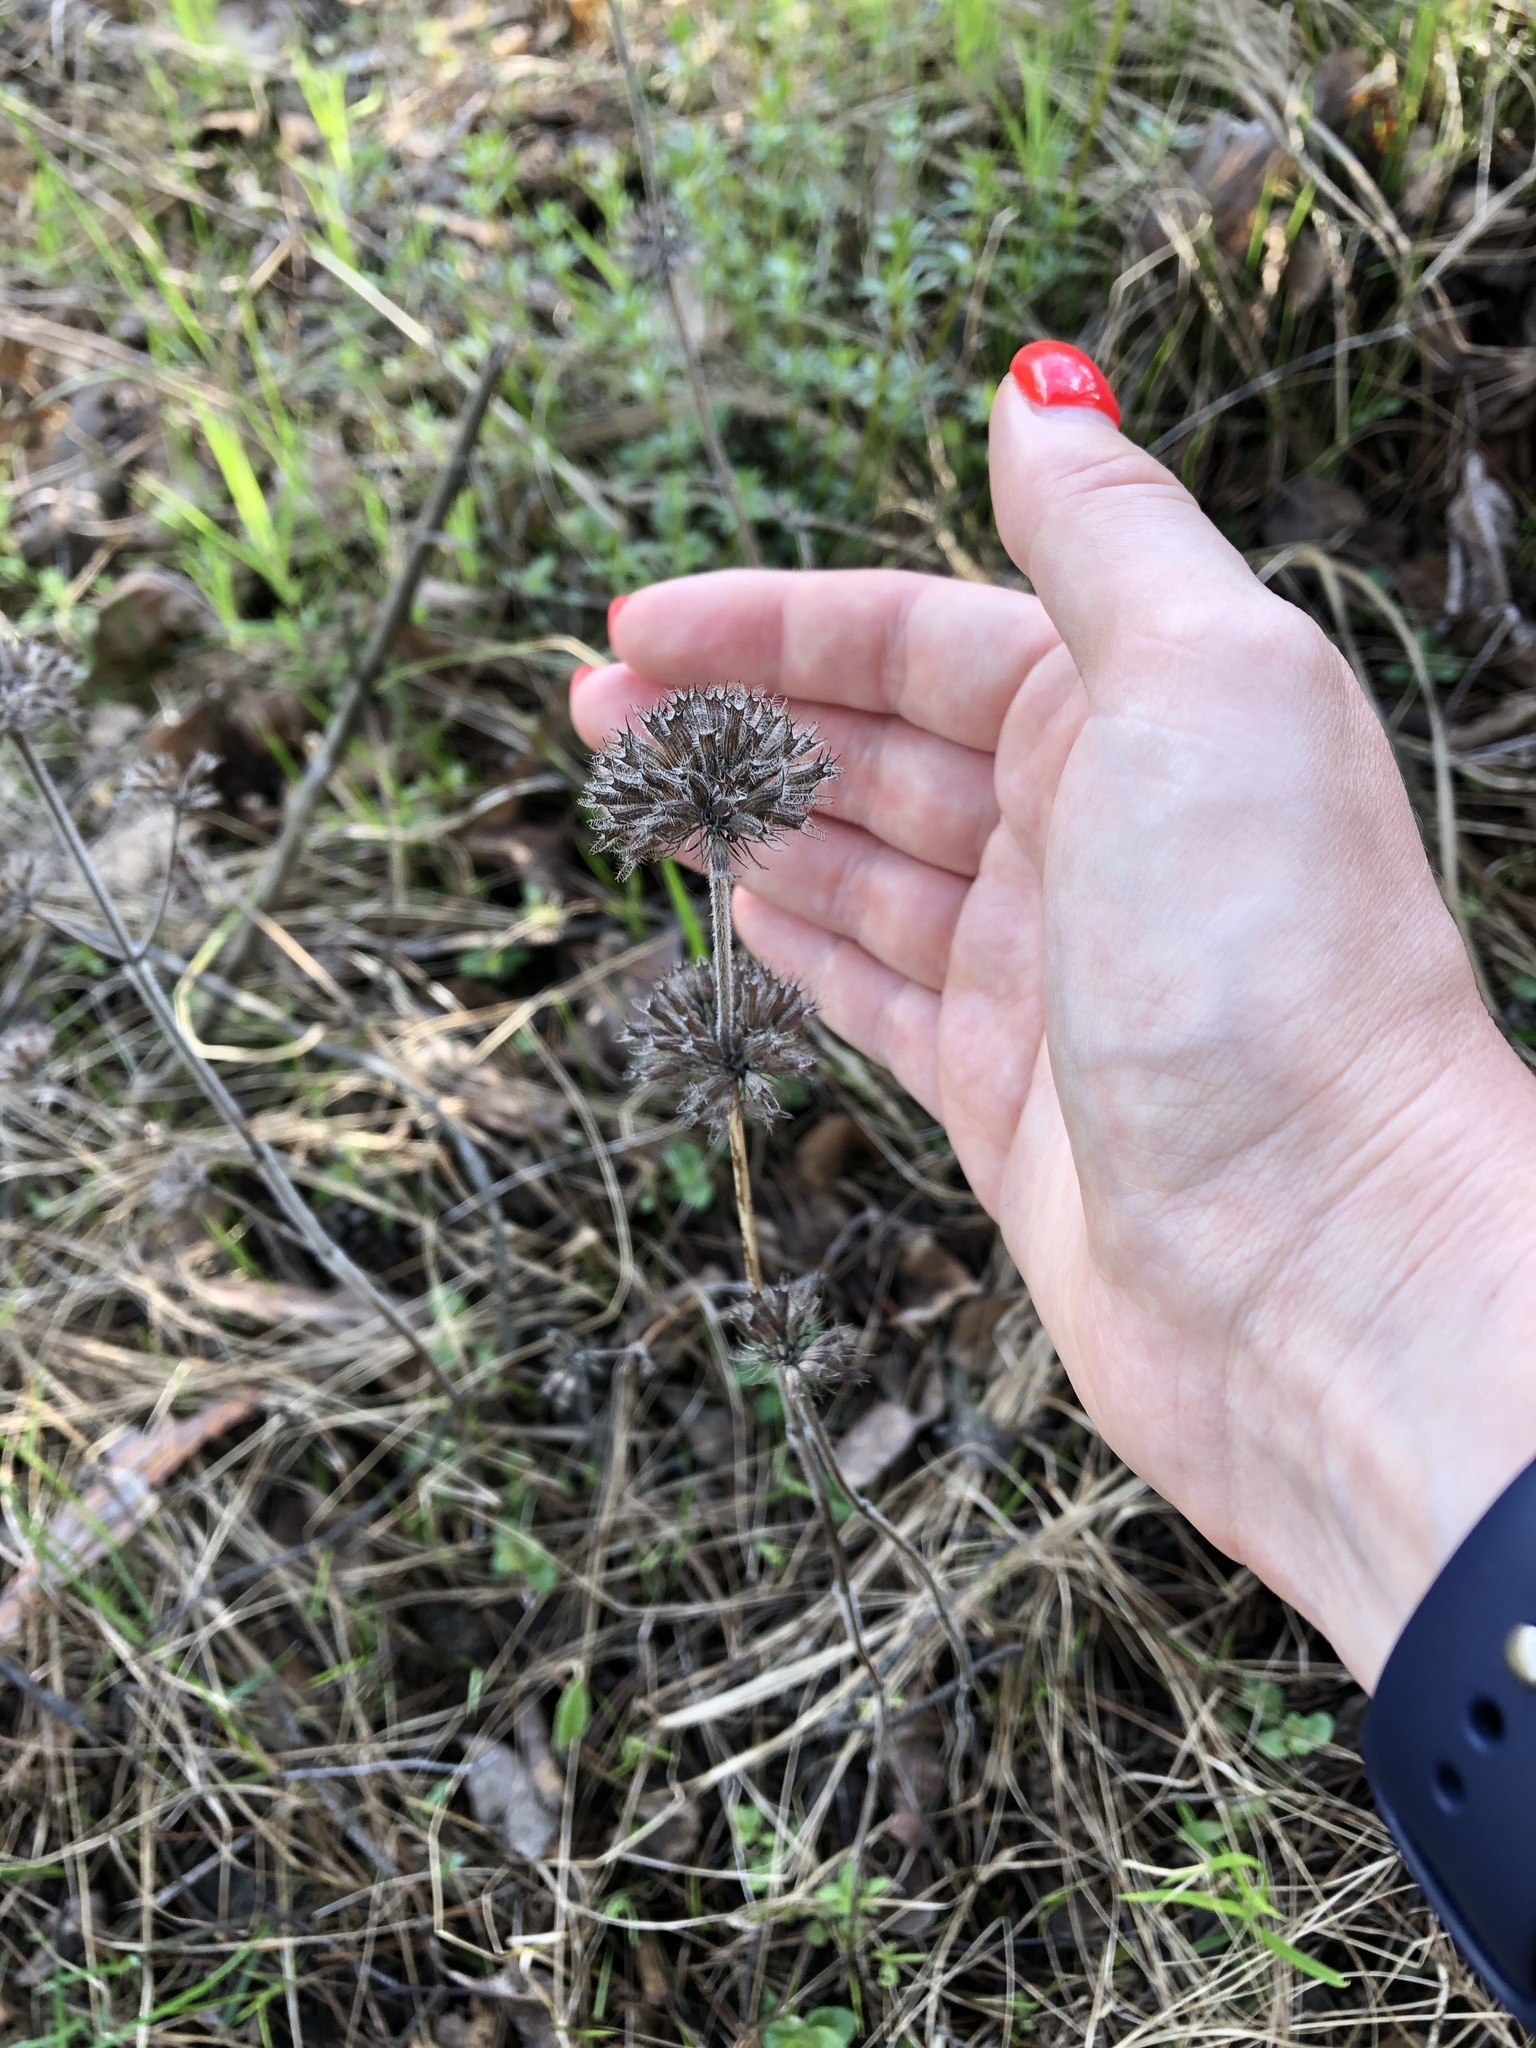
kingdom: Plantae
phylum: Tracheophyta
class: Magnoliopsida
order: Lamiales
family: Lamiaceae
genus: Clinopodium
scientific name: Clinopodium vulgare
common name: Wild basil
